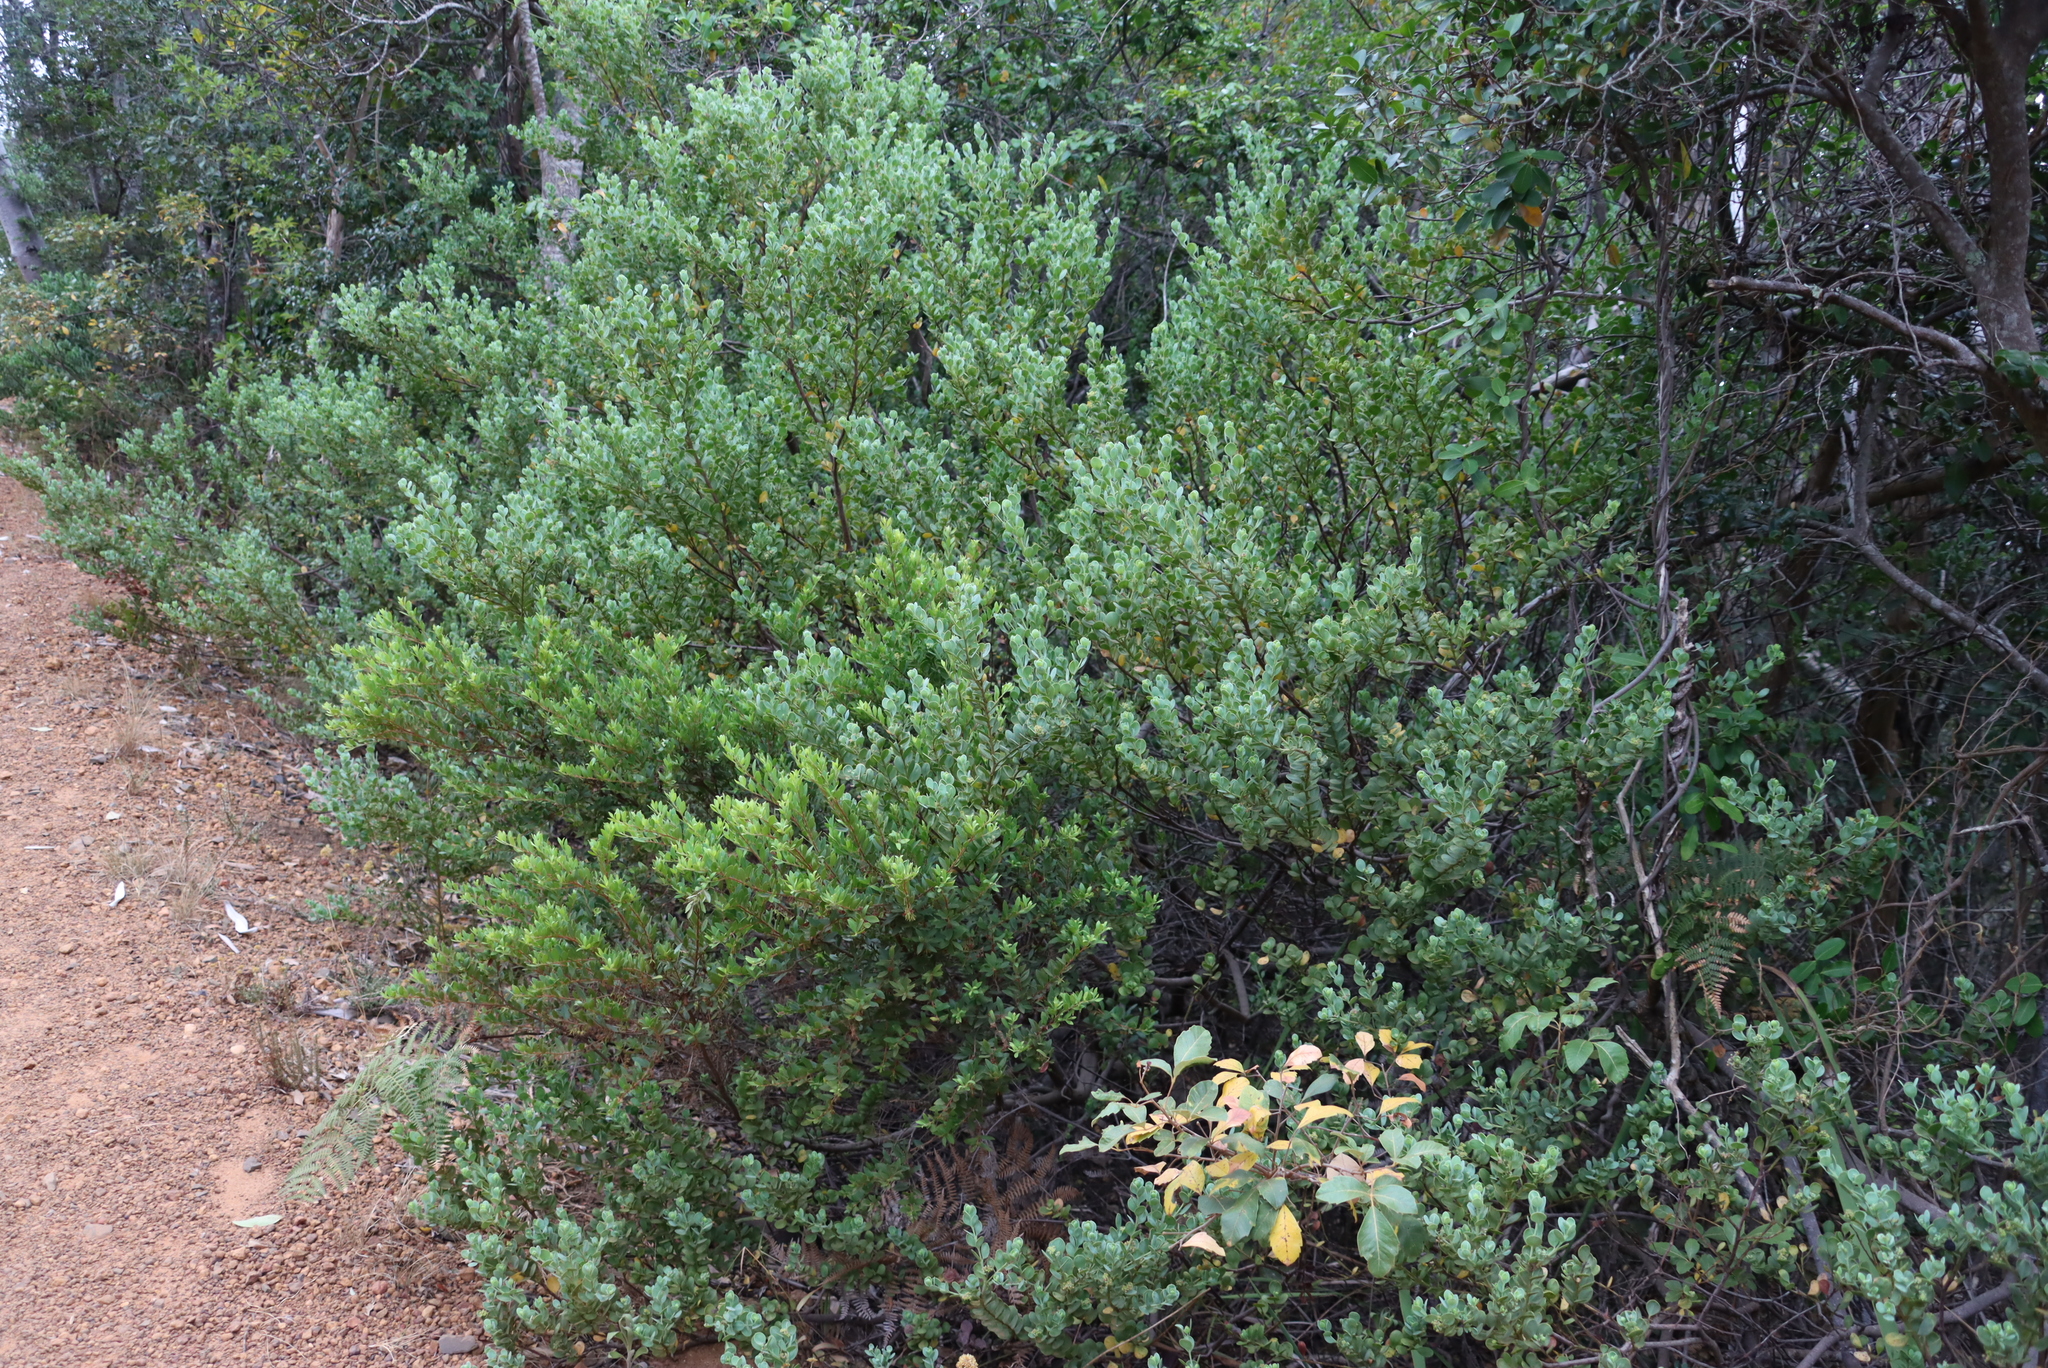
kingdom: Plantae
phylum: Tracheophyta
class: Magnoliopsida
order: Santalales
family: Santalaceae
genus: Osyris
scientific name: Osyris compressa
